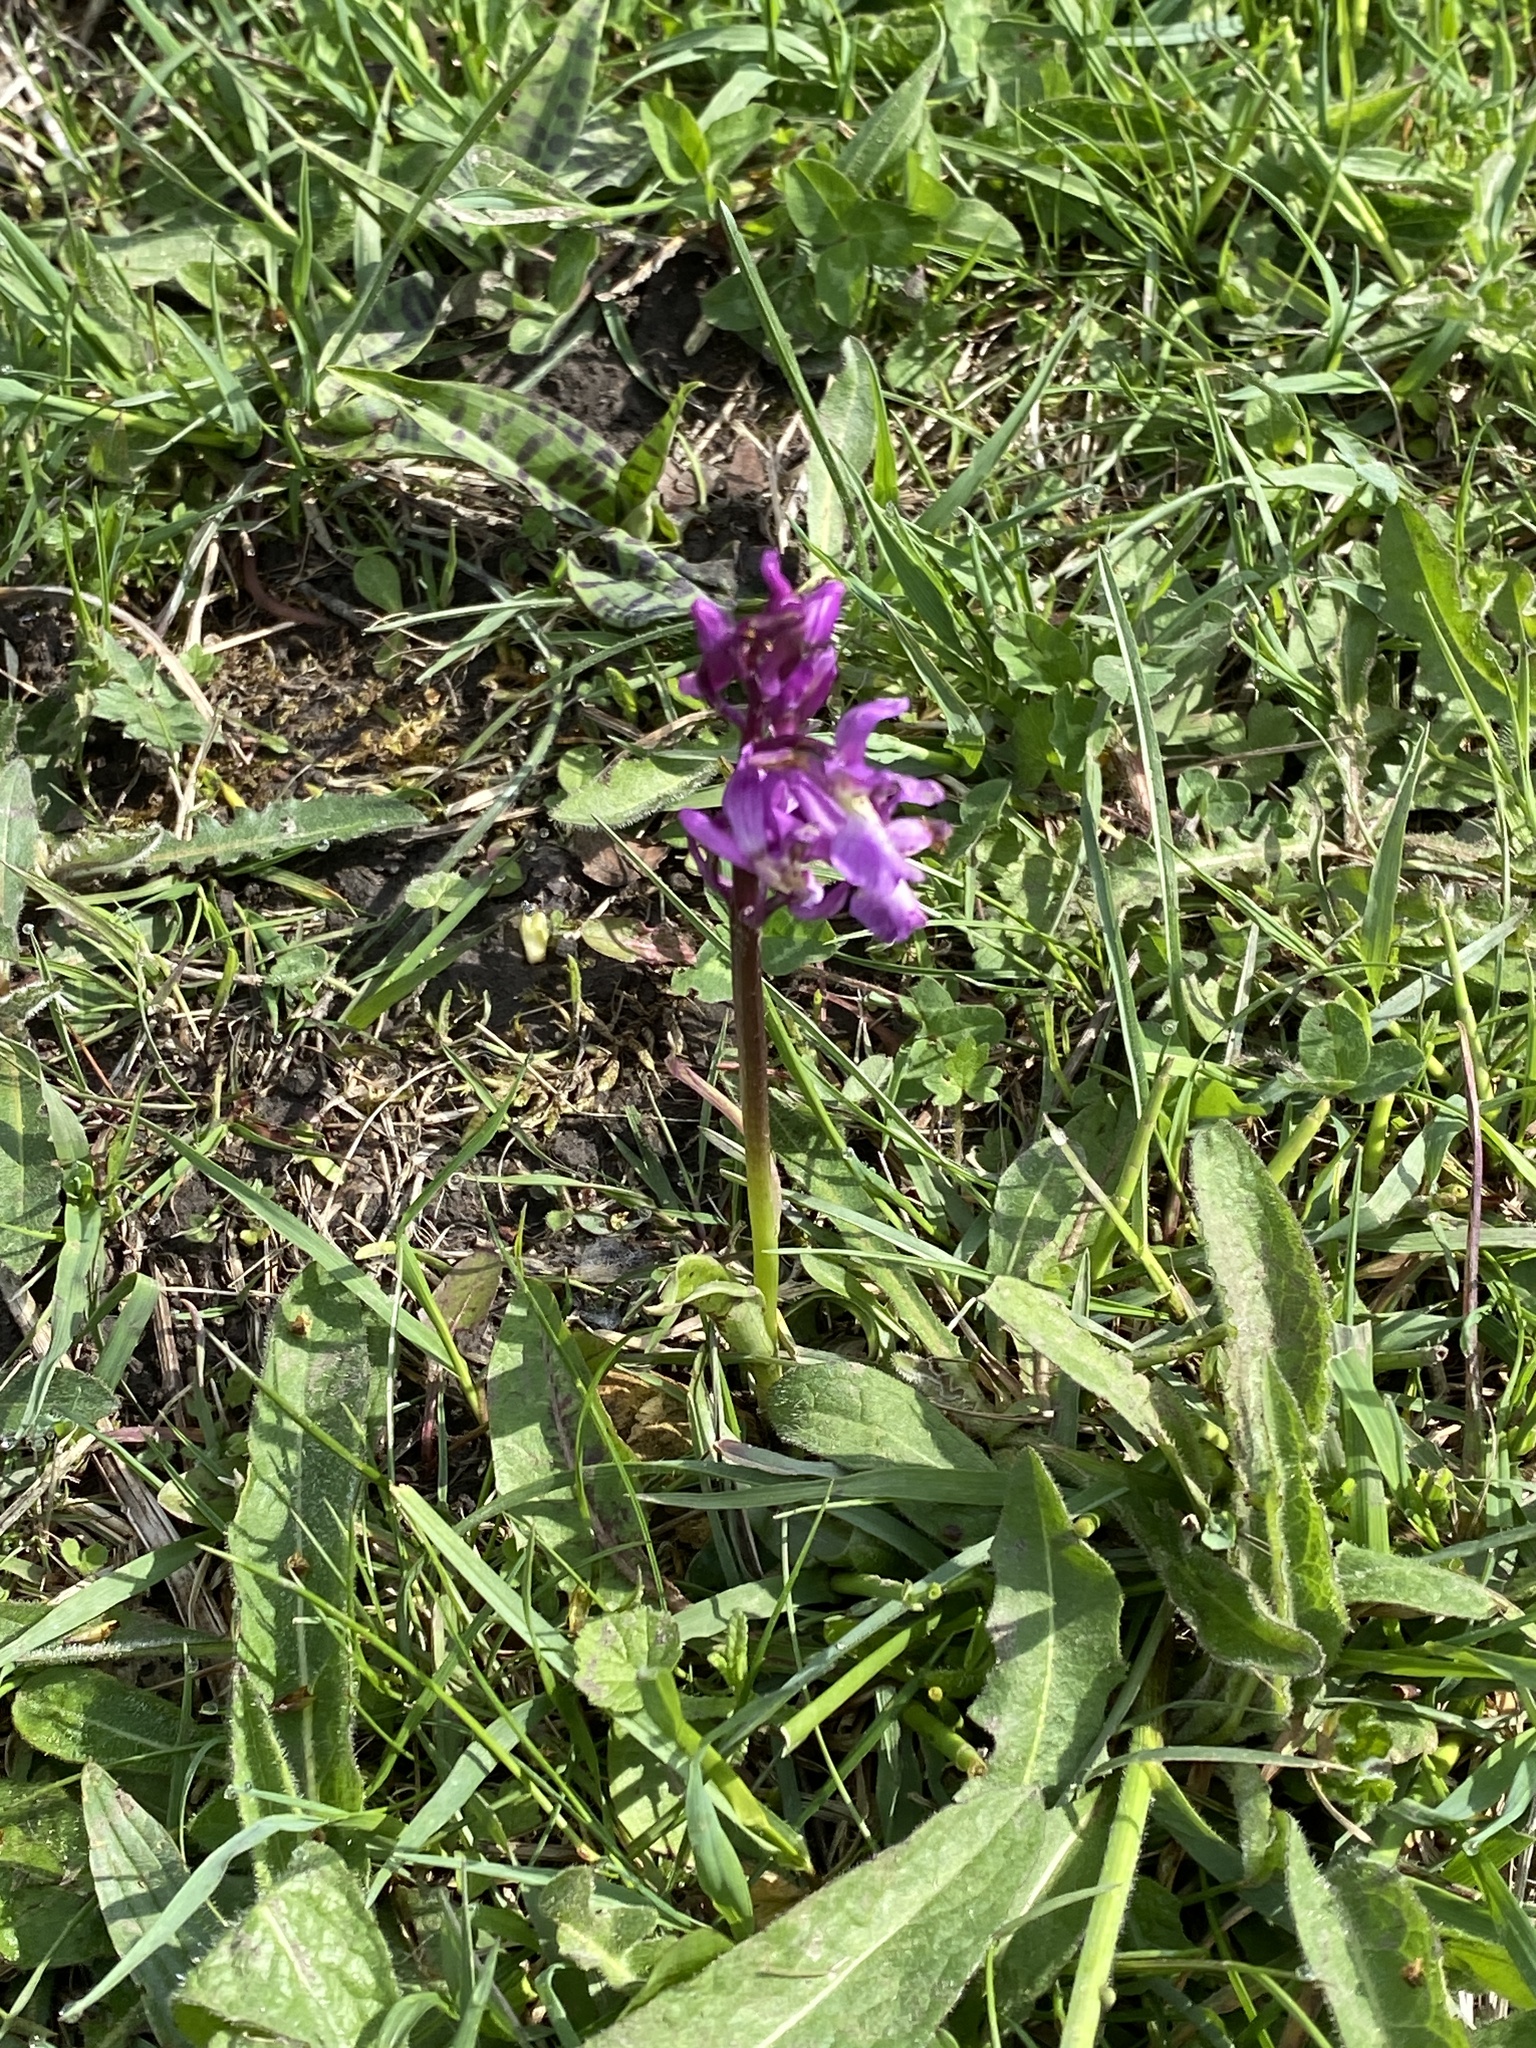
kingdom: Plantae
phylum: Tracheophyta
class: Liliopsida
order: Asparagales
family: Orchidaceae
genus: Orchis
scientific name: Orchis mascula
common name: Early-purple orchid
